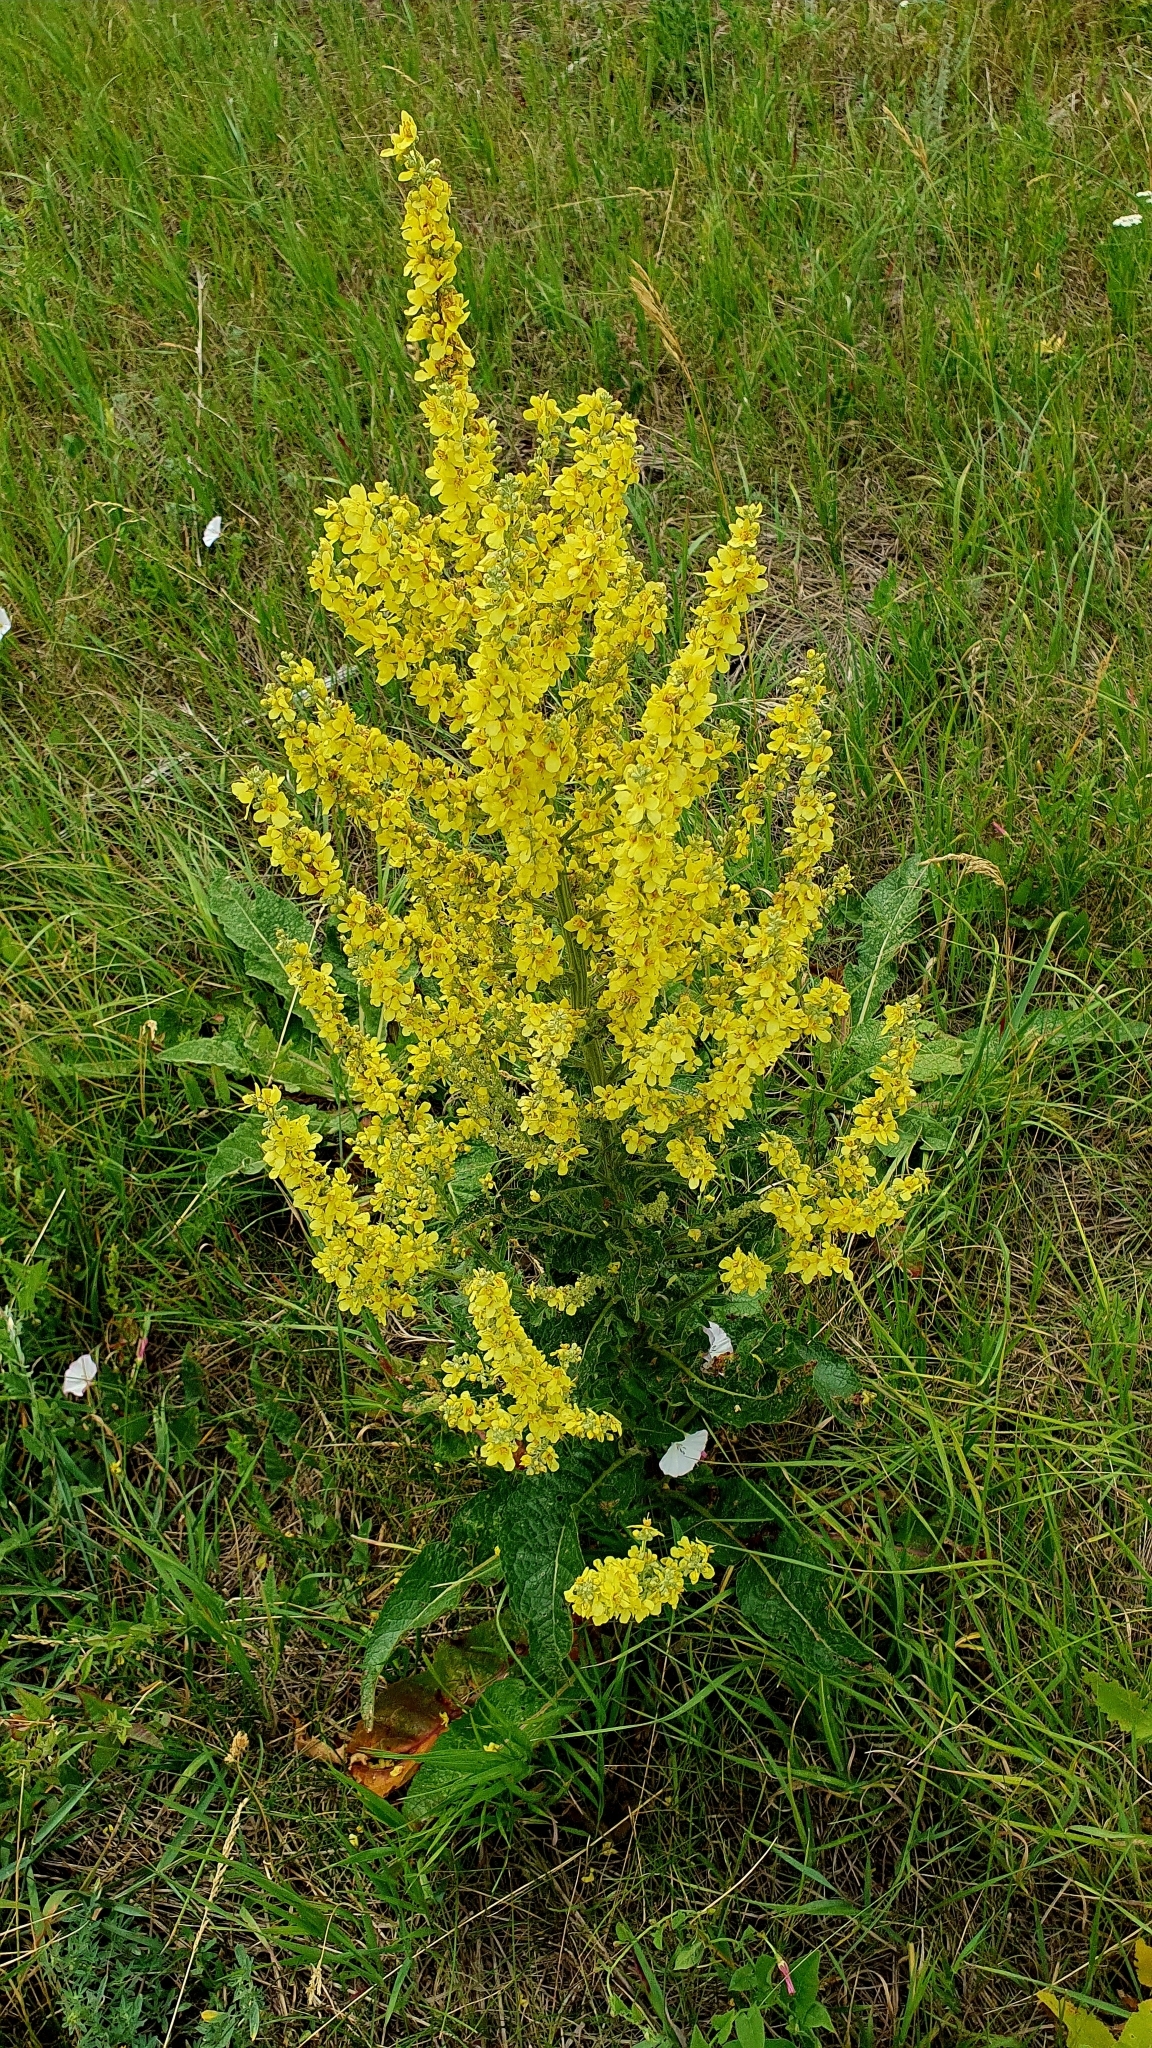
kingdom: Plantae
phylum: Tracheophyta
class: Magnoliopsida
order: Lamiales
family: Scrophulariaceae
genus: Verbascum
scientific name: Verbascum lychnitis
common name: White mullein
